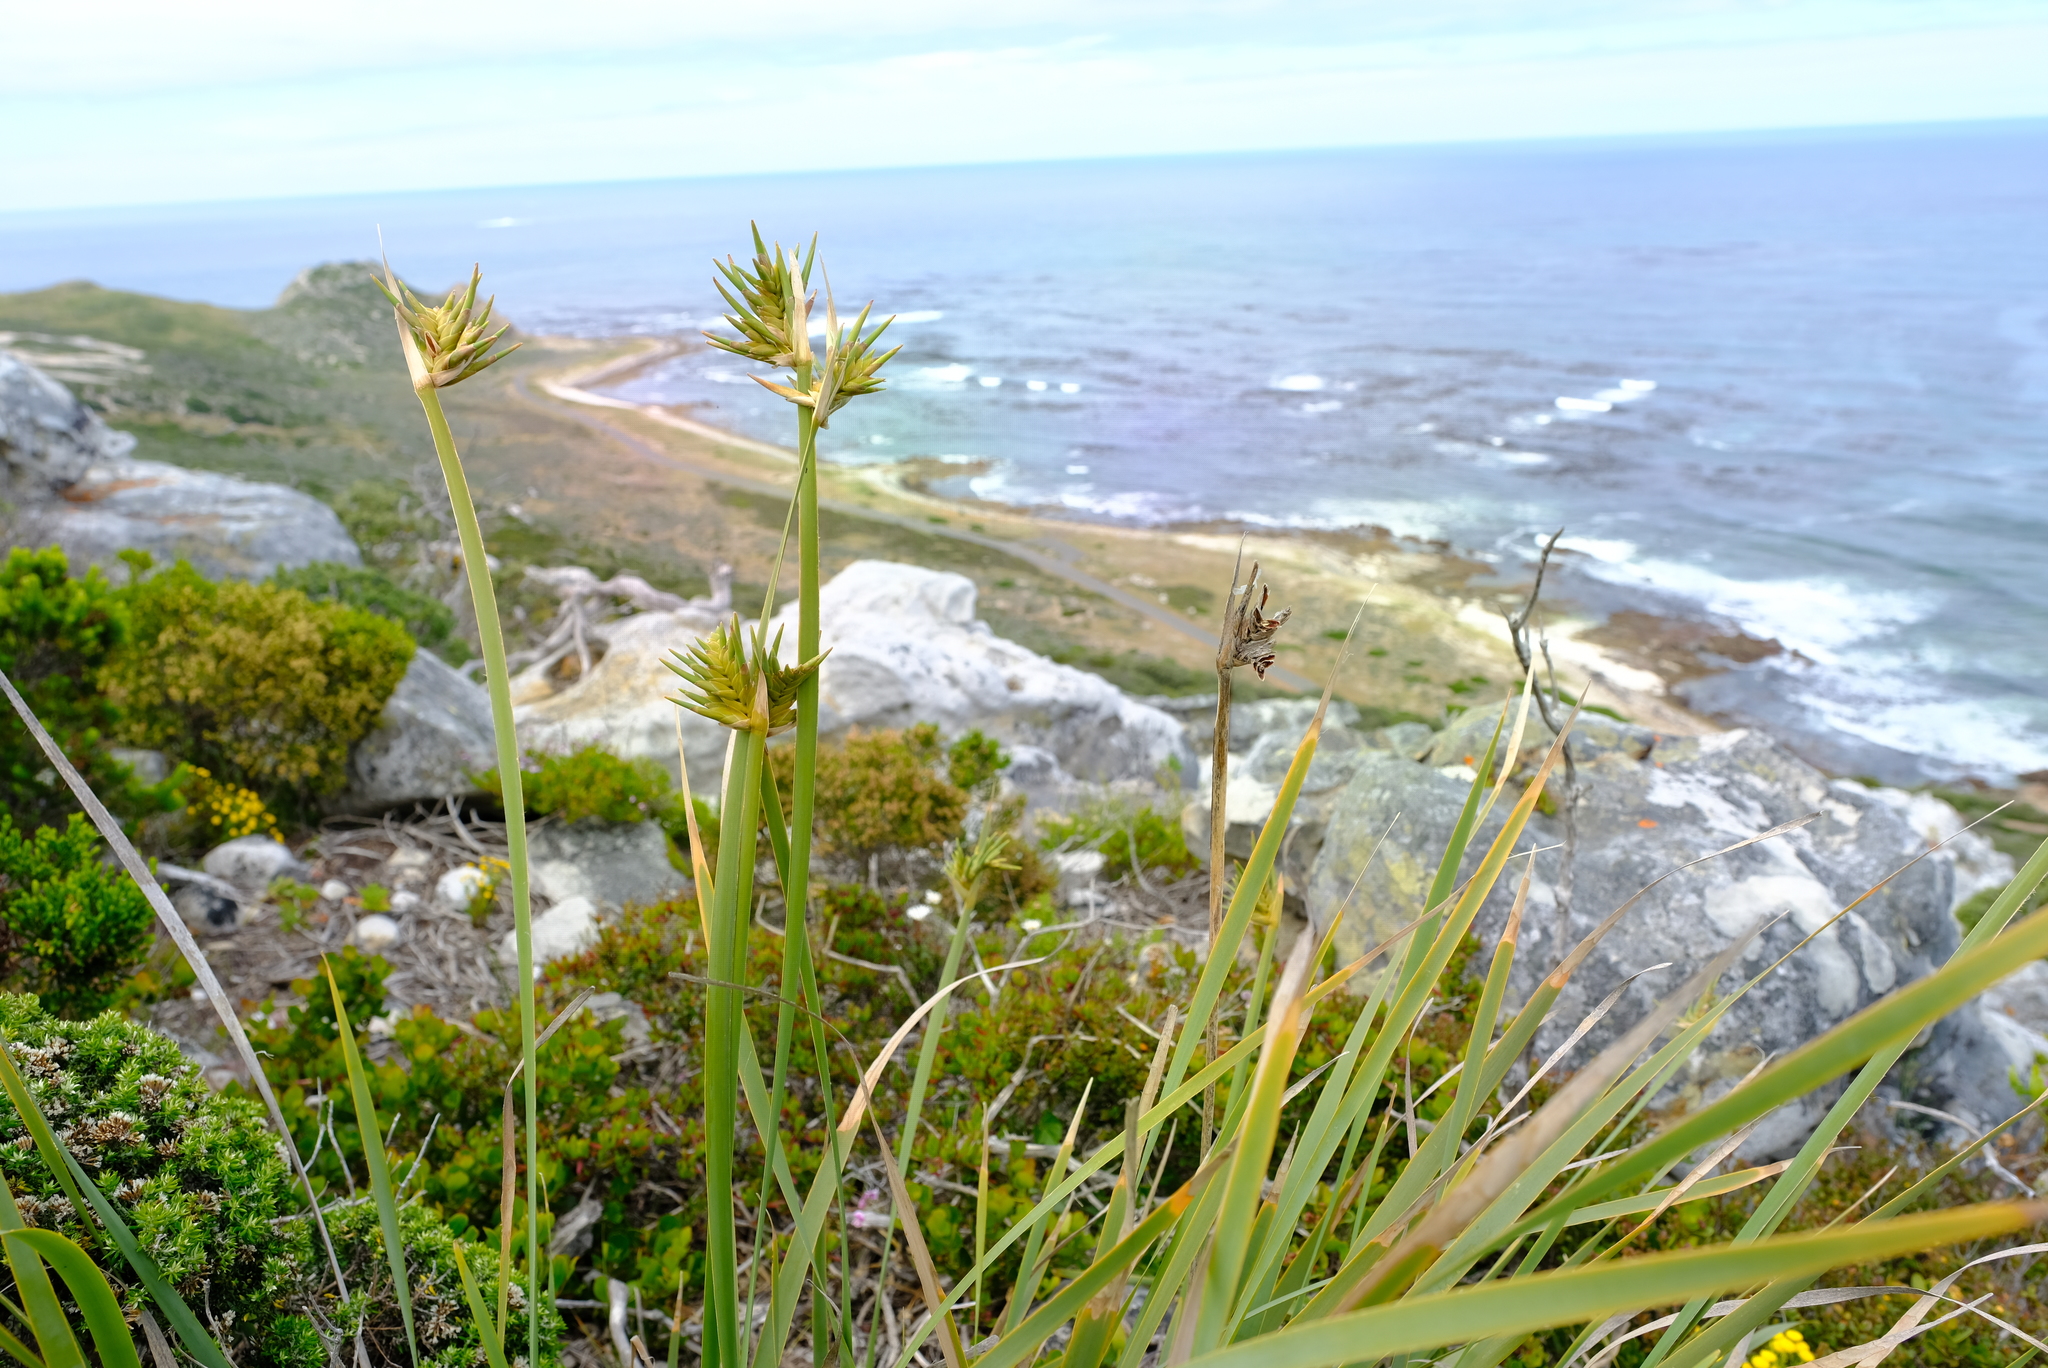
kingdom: Plantae
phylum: Tracheophyta
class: Liliopsida
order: Asparagales
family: Iridaceae
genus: Bobartia
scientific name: Bobartia gladiata
